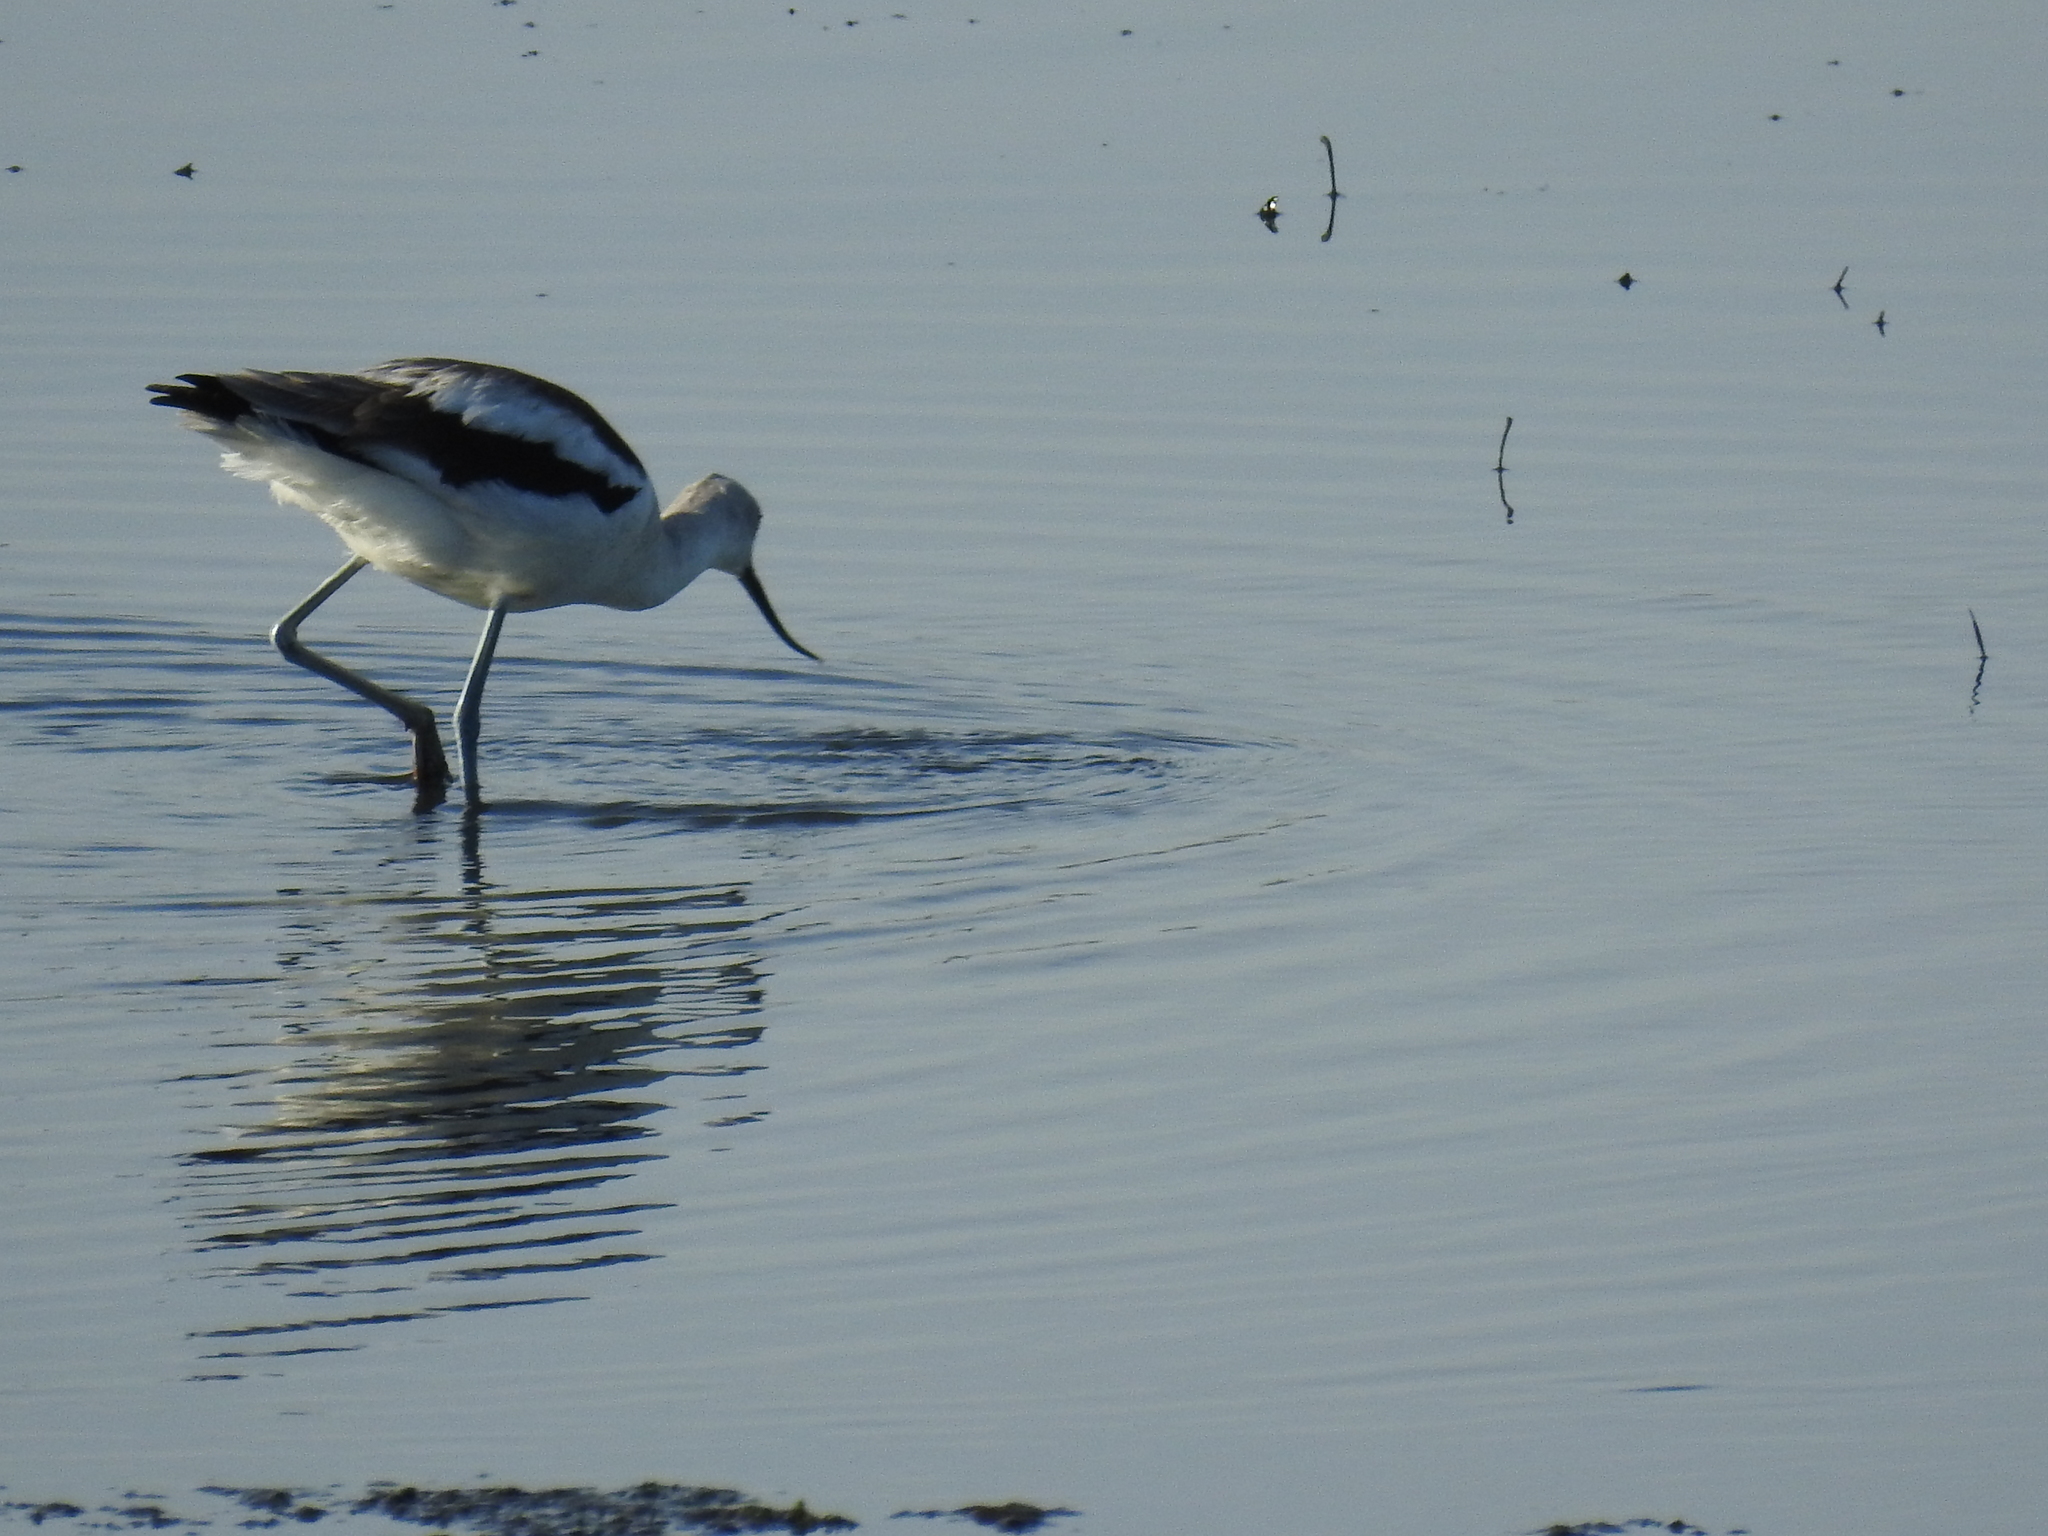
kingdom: Animalia
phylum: Chordata
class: Aves
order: Charadriiformes
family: Recurvirostridae
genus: Recurvirostra
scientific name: Recurvirostra americana
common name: American avocet
